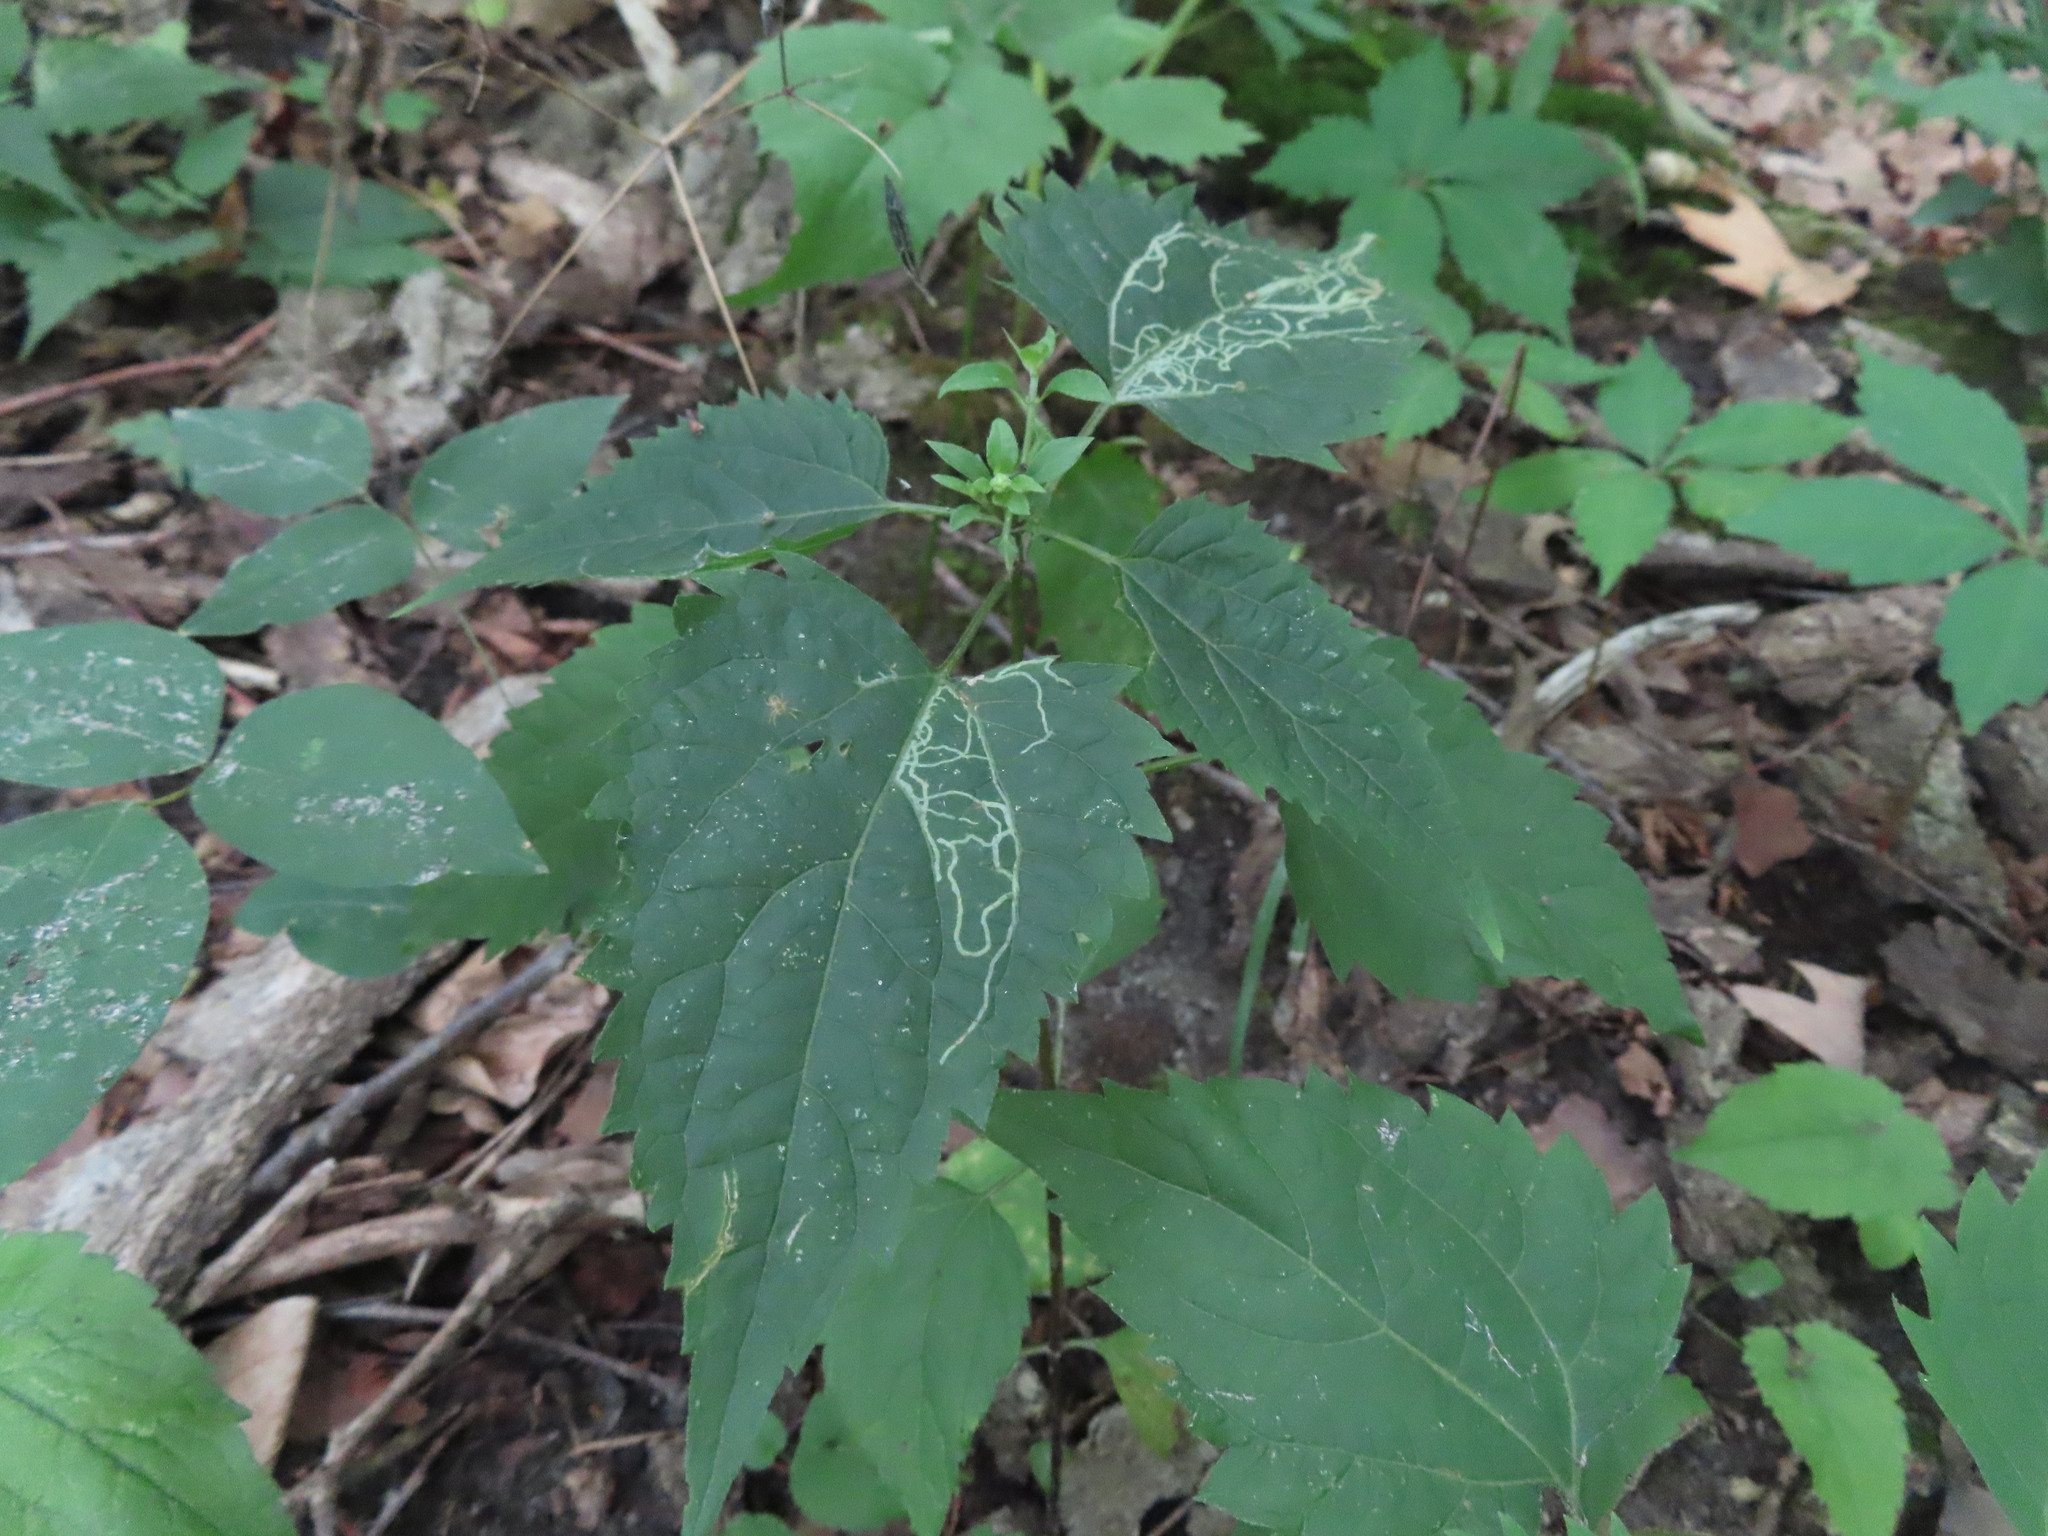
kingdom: Plantae
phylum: Tracheophyta
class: Magnoliopsida
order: Asterales
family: Asteraceae
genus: Ageratina
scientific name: Ageratina altissima
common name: White snakeroot
